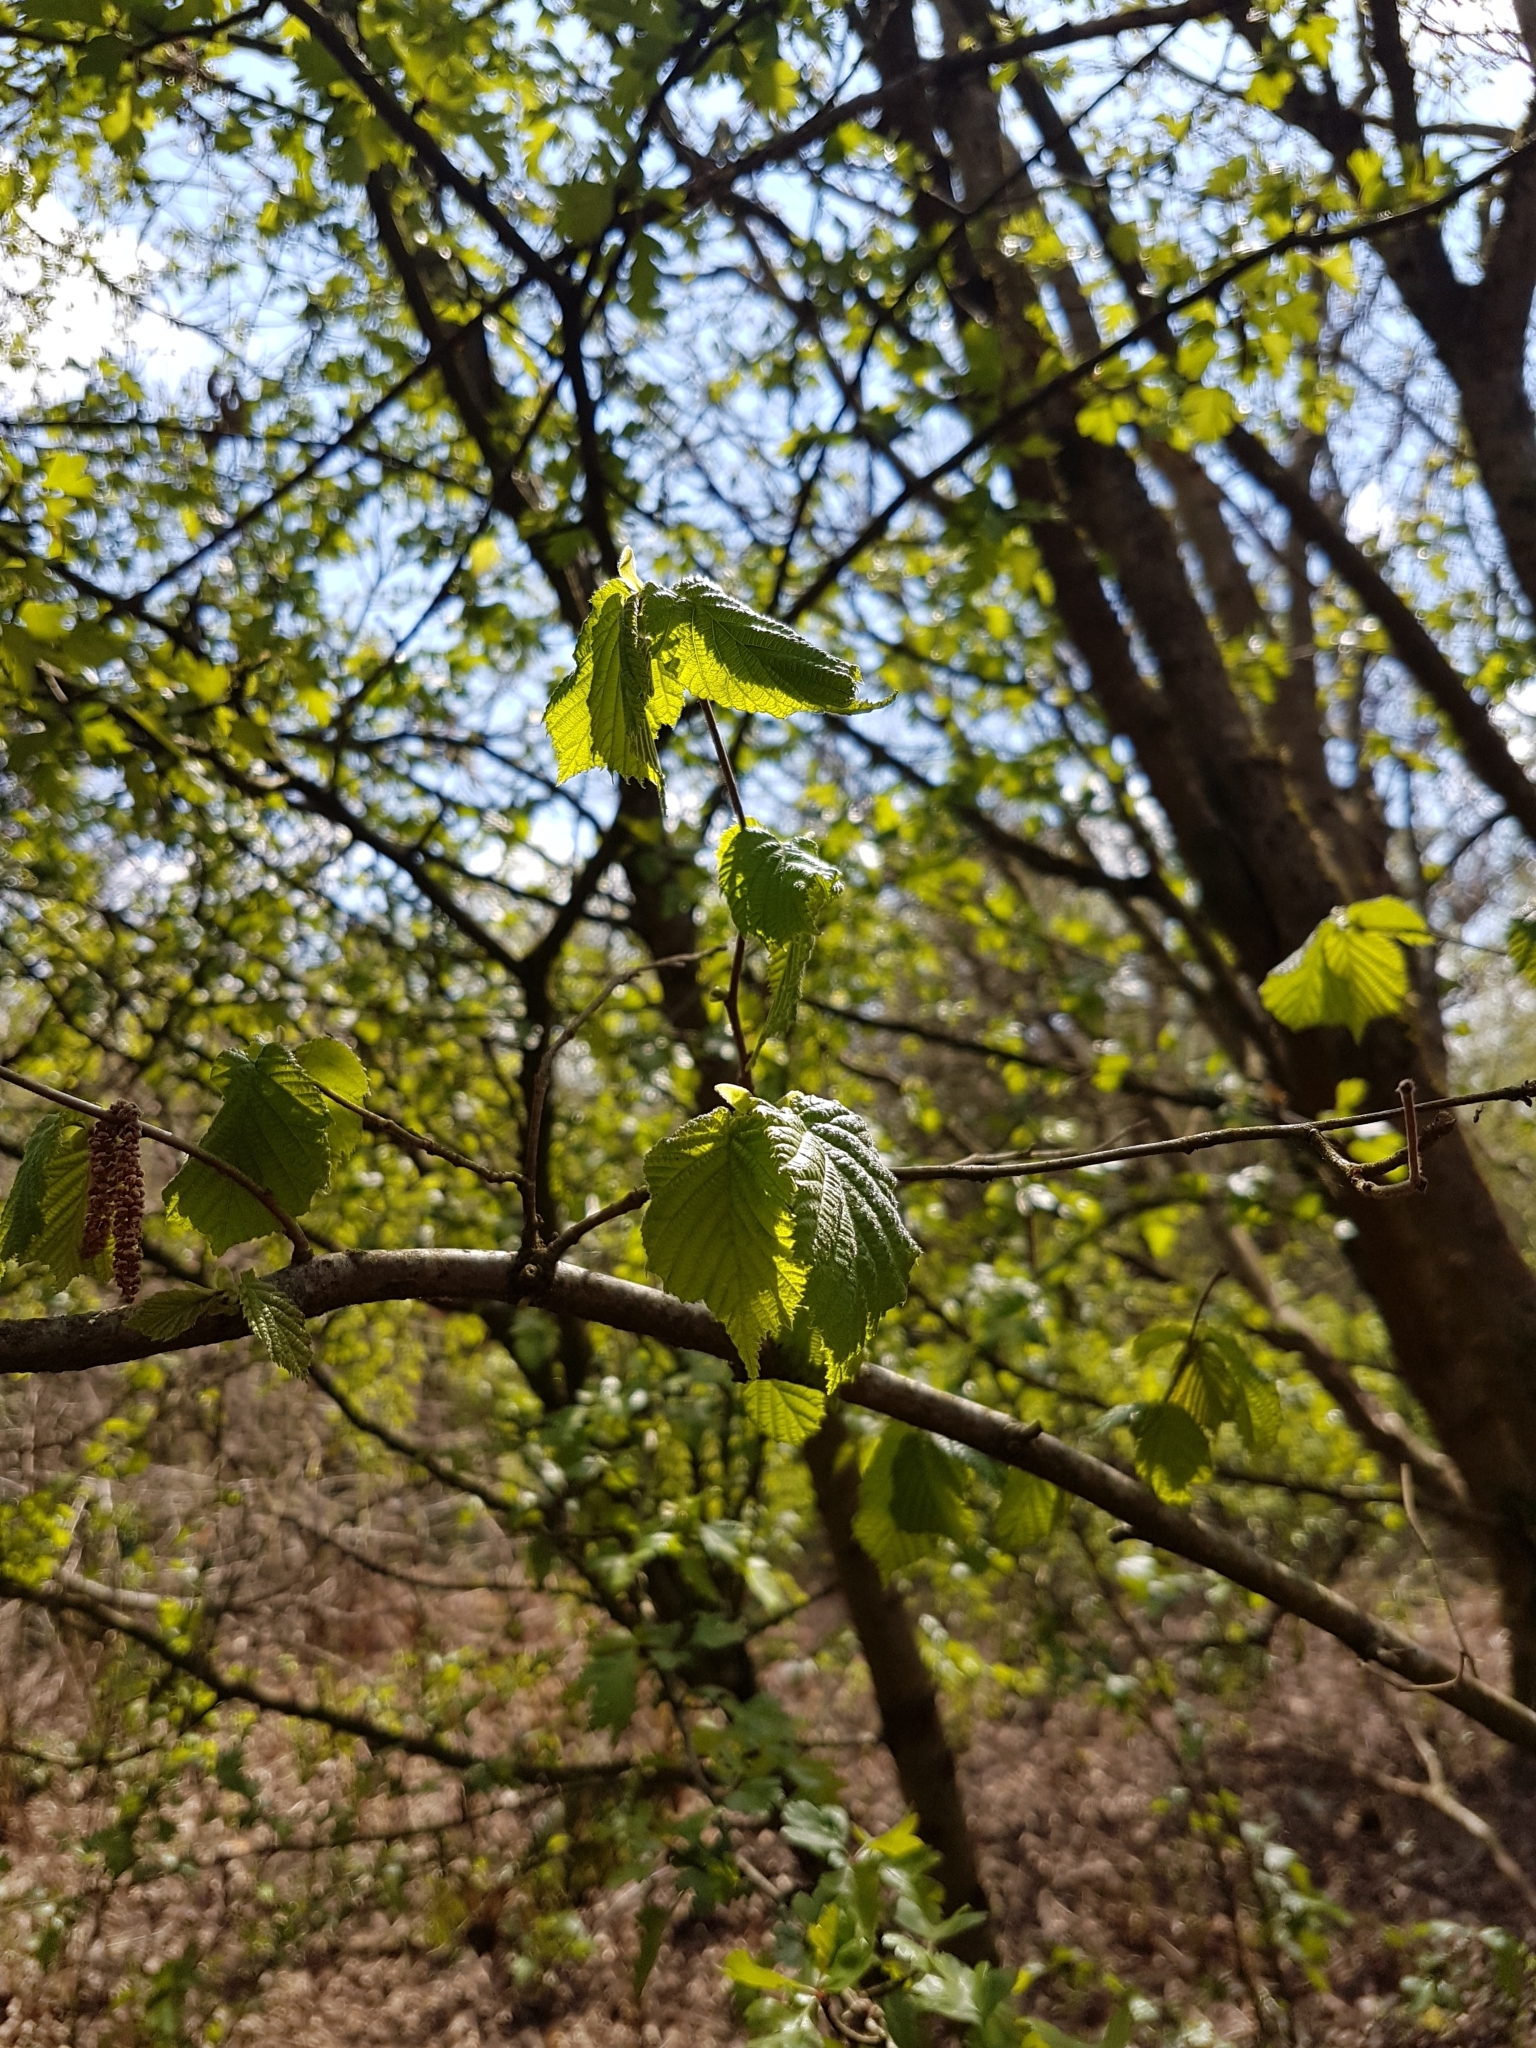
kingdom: Plantae
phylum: Tracheophyta
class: Magnoliopsida
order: Fagales
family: Betulaceae
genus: Corylus
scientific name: Corylus avellana
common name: European hazel
